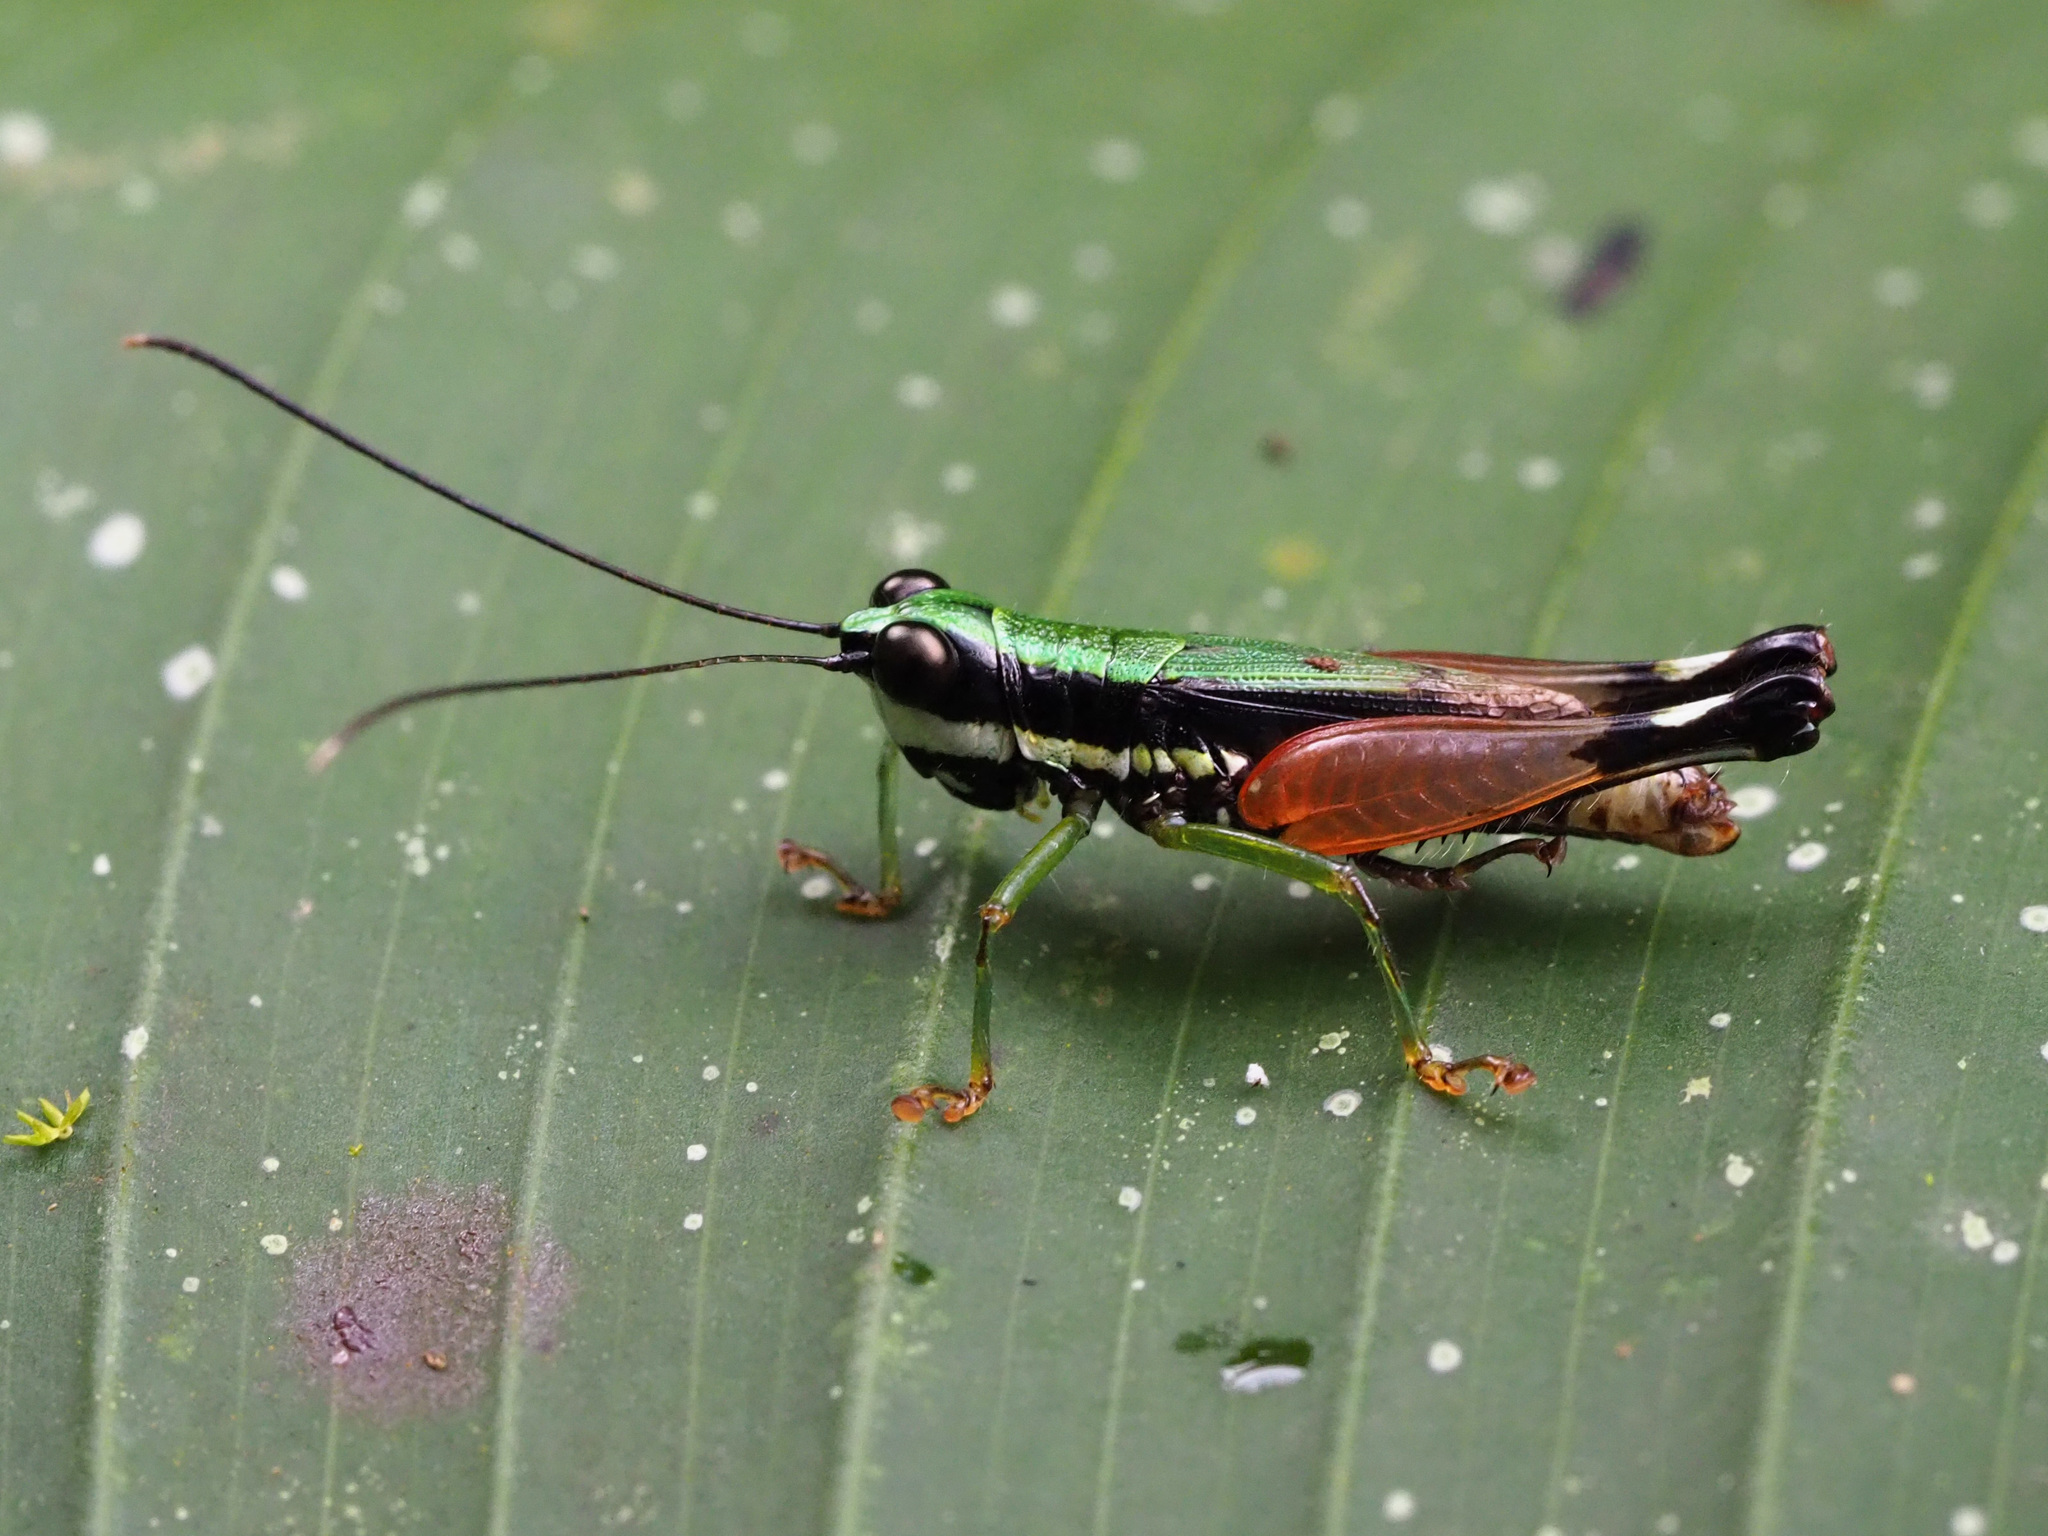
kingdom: Animalia
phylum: Arthropoda
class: Insecta
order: Orthoptera
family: Acrididae
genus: Nadiacris
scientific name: Nadiacris nitidula
